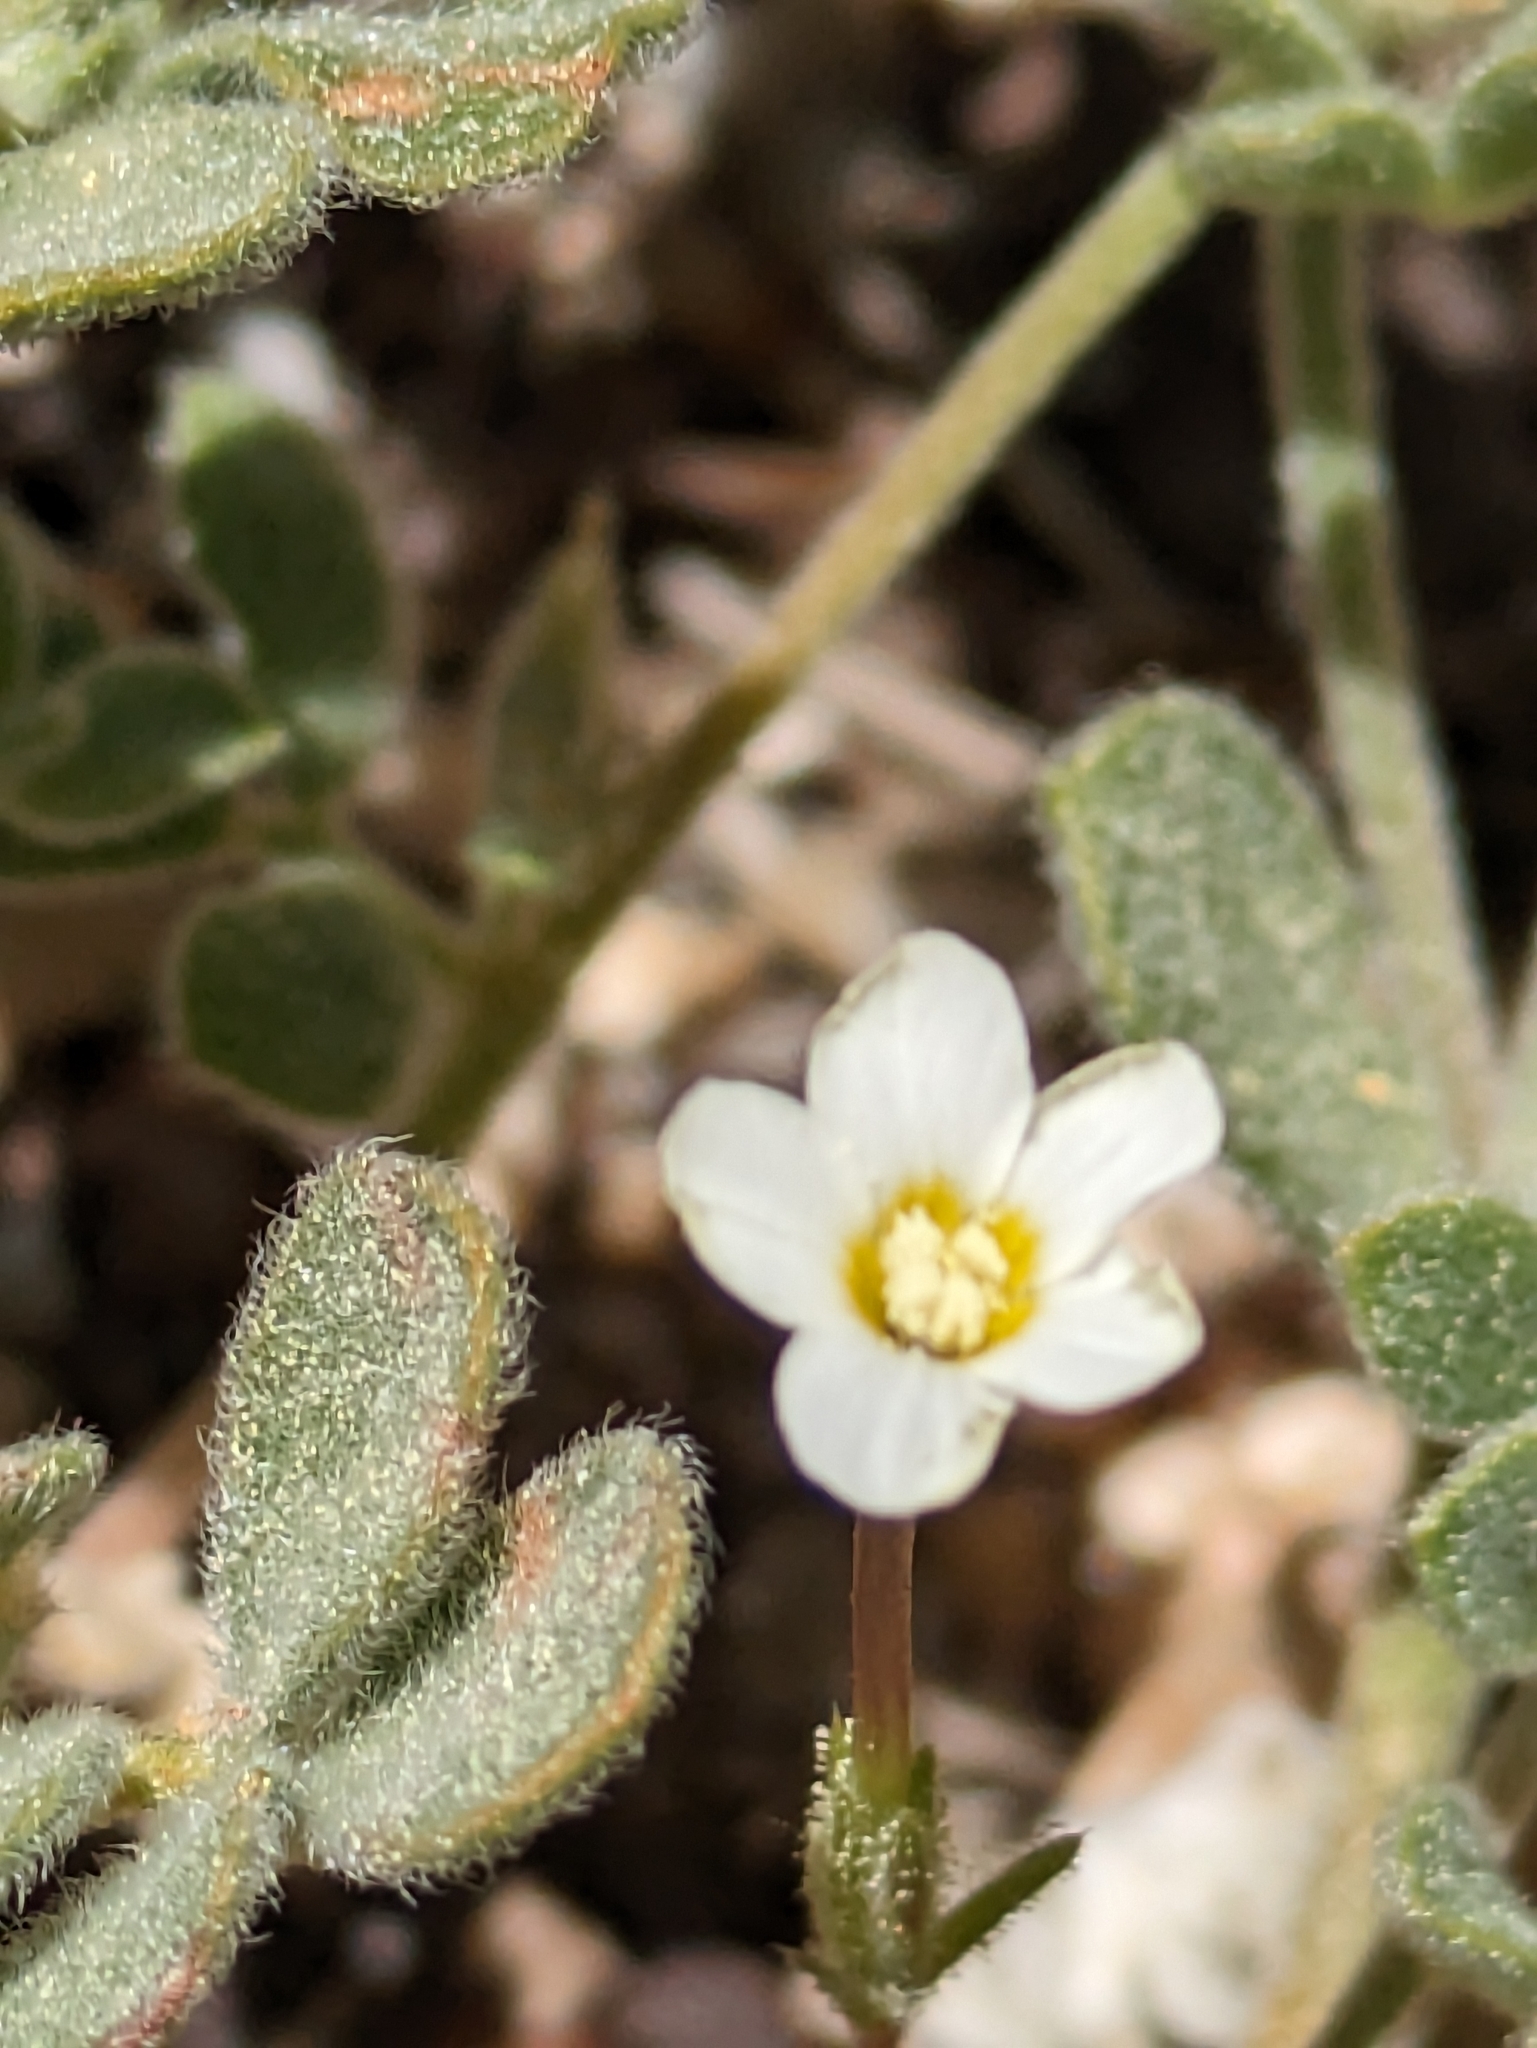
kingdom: Plantae
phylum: Tracheophyta
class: Magnoliopsida
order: Ericales
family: Polemoniaceae
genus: Leptosiphon
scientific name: Leptosiphon breviculus
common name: Mojave linanthus
